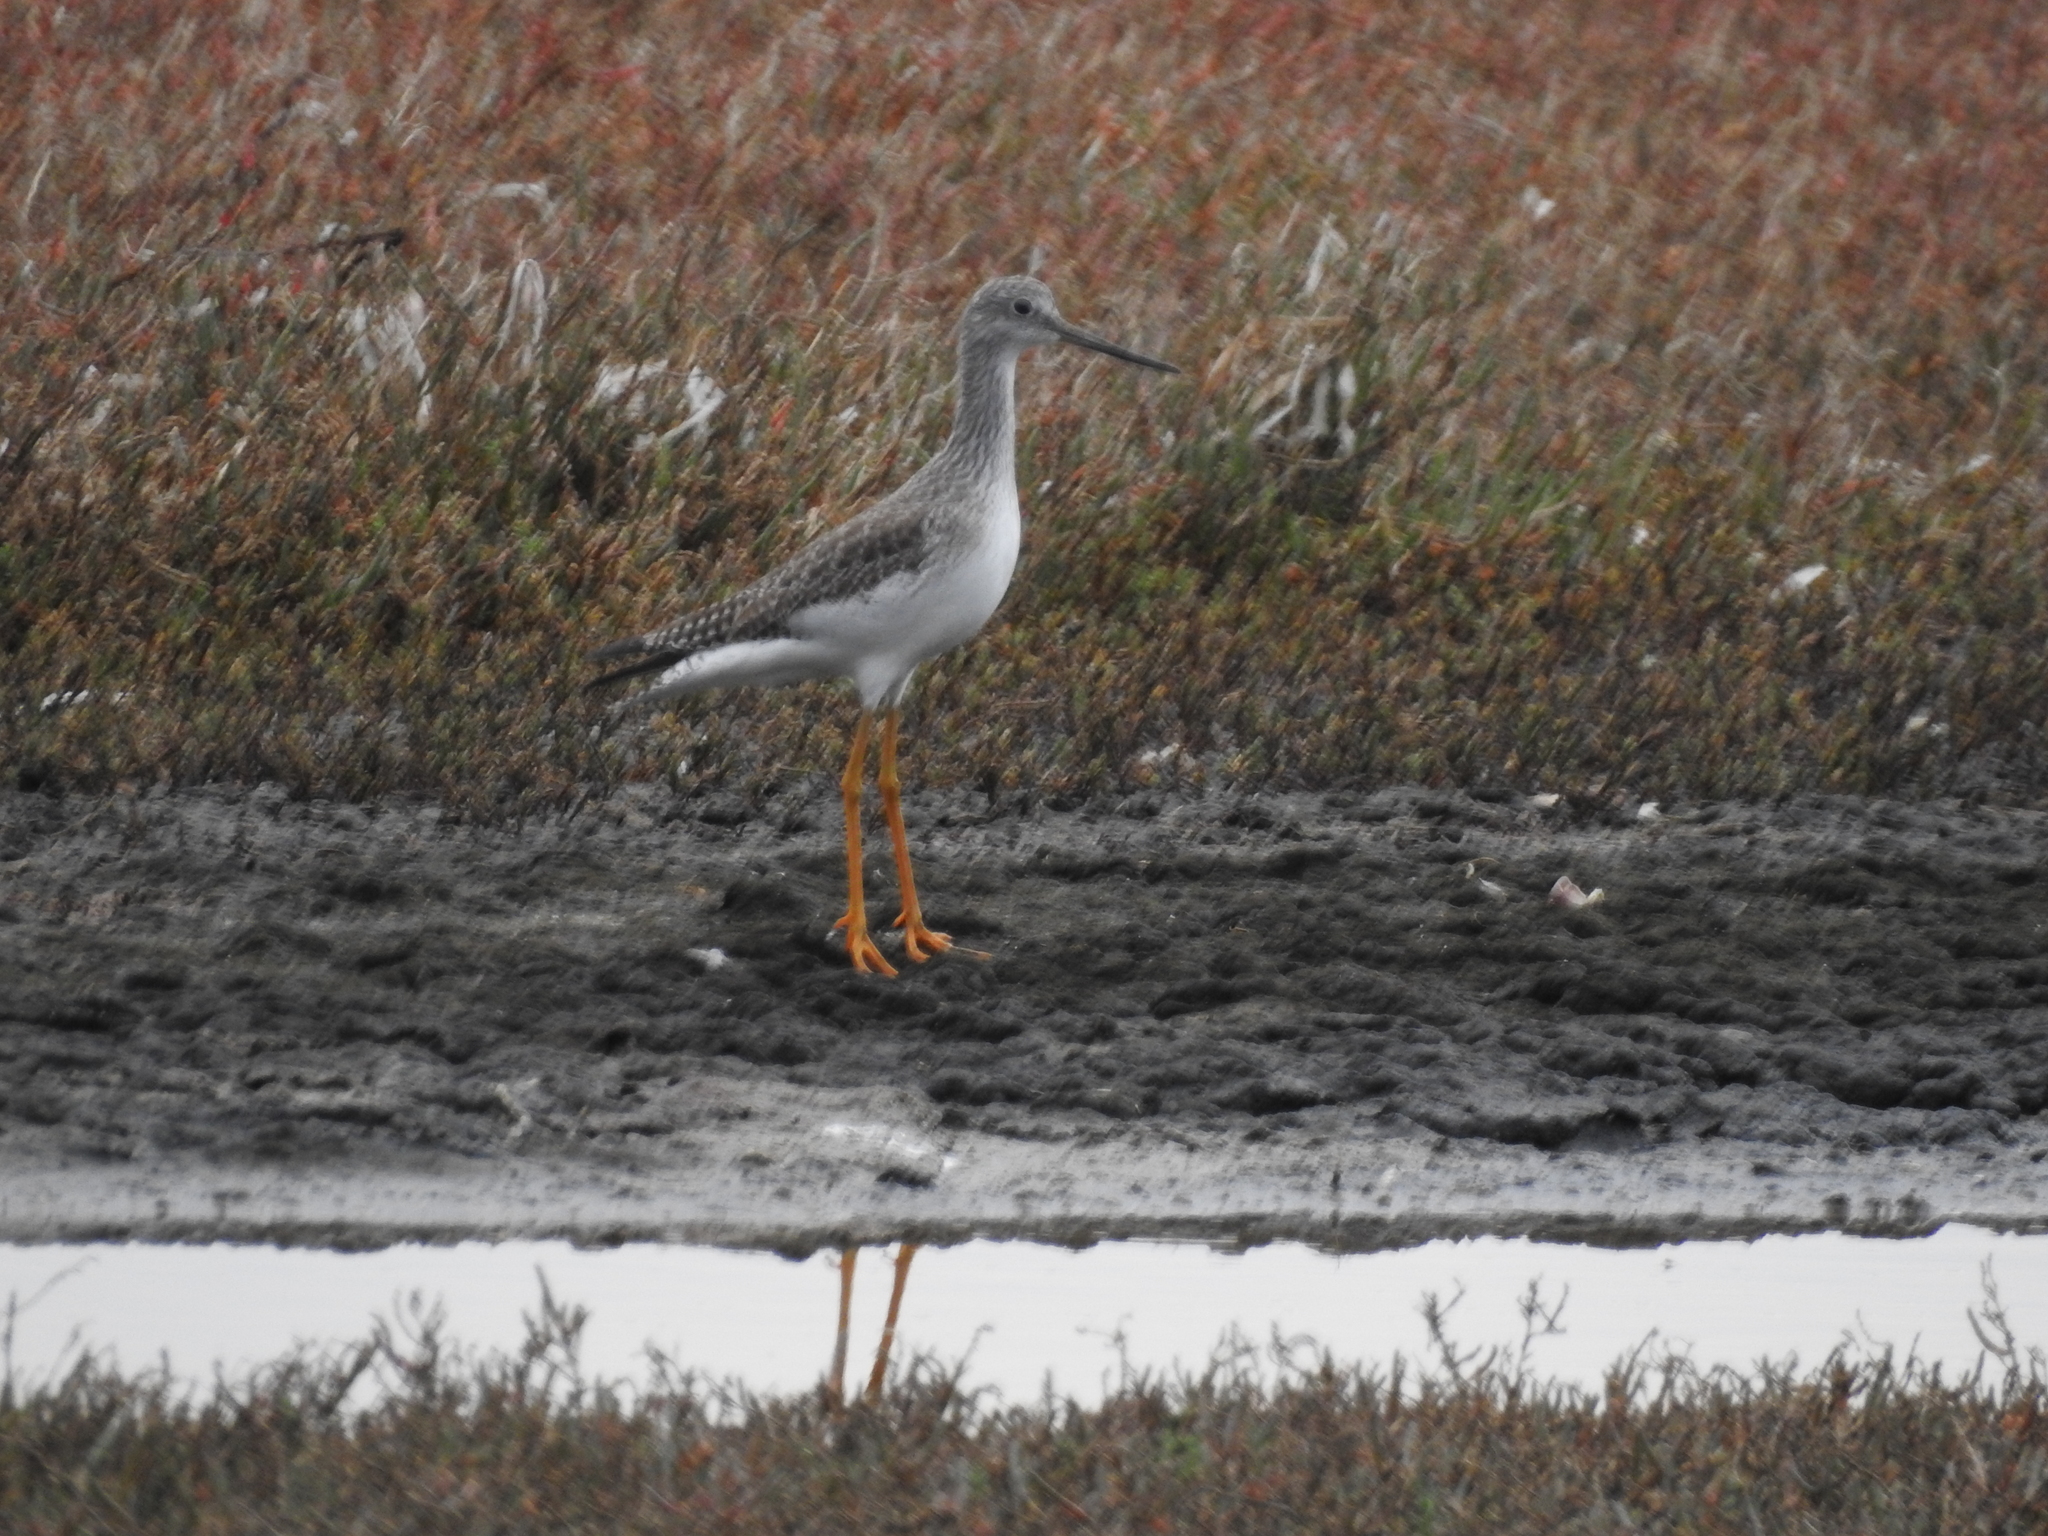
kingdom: Animalia
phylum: Chordata
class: Aves
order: Charadriiformes
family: Scolopacidae
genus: Tringa
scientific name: Tringa melanoleuca
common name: Greater yellowlegs
